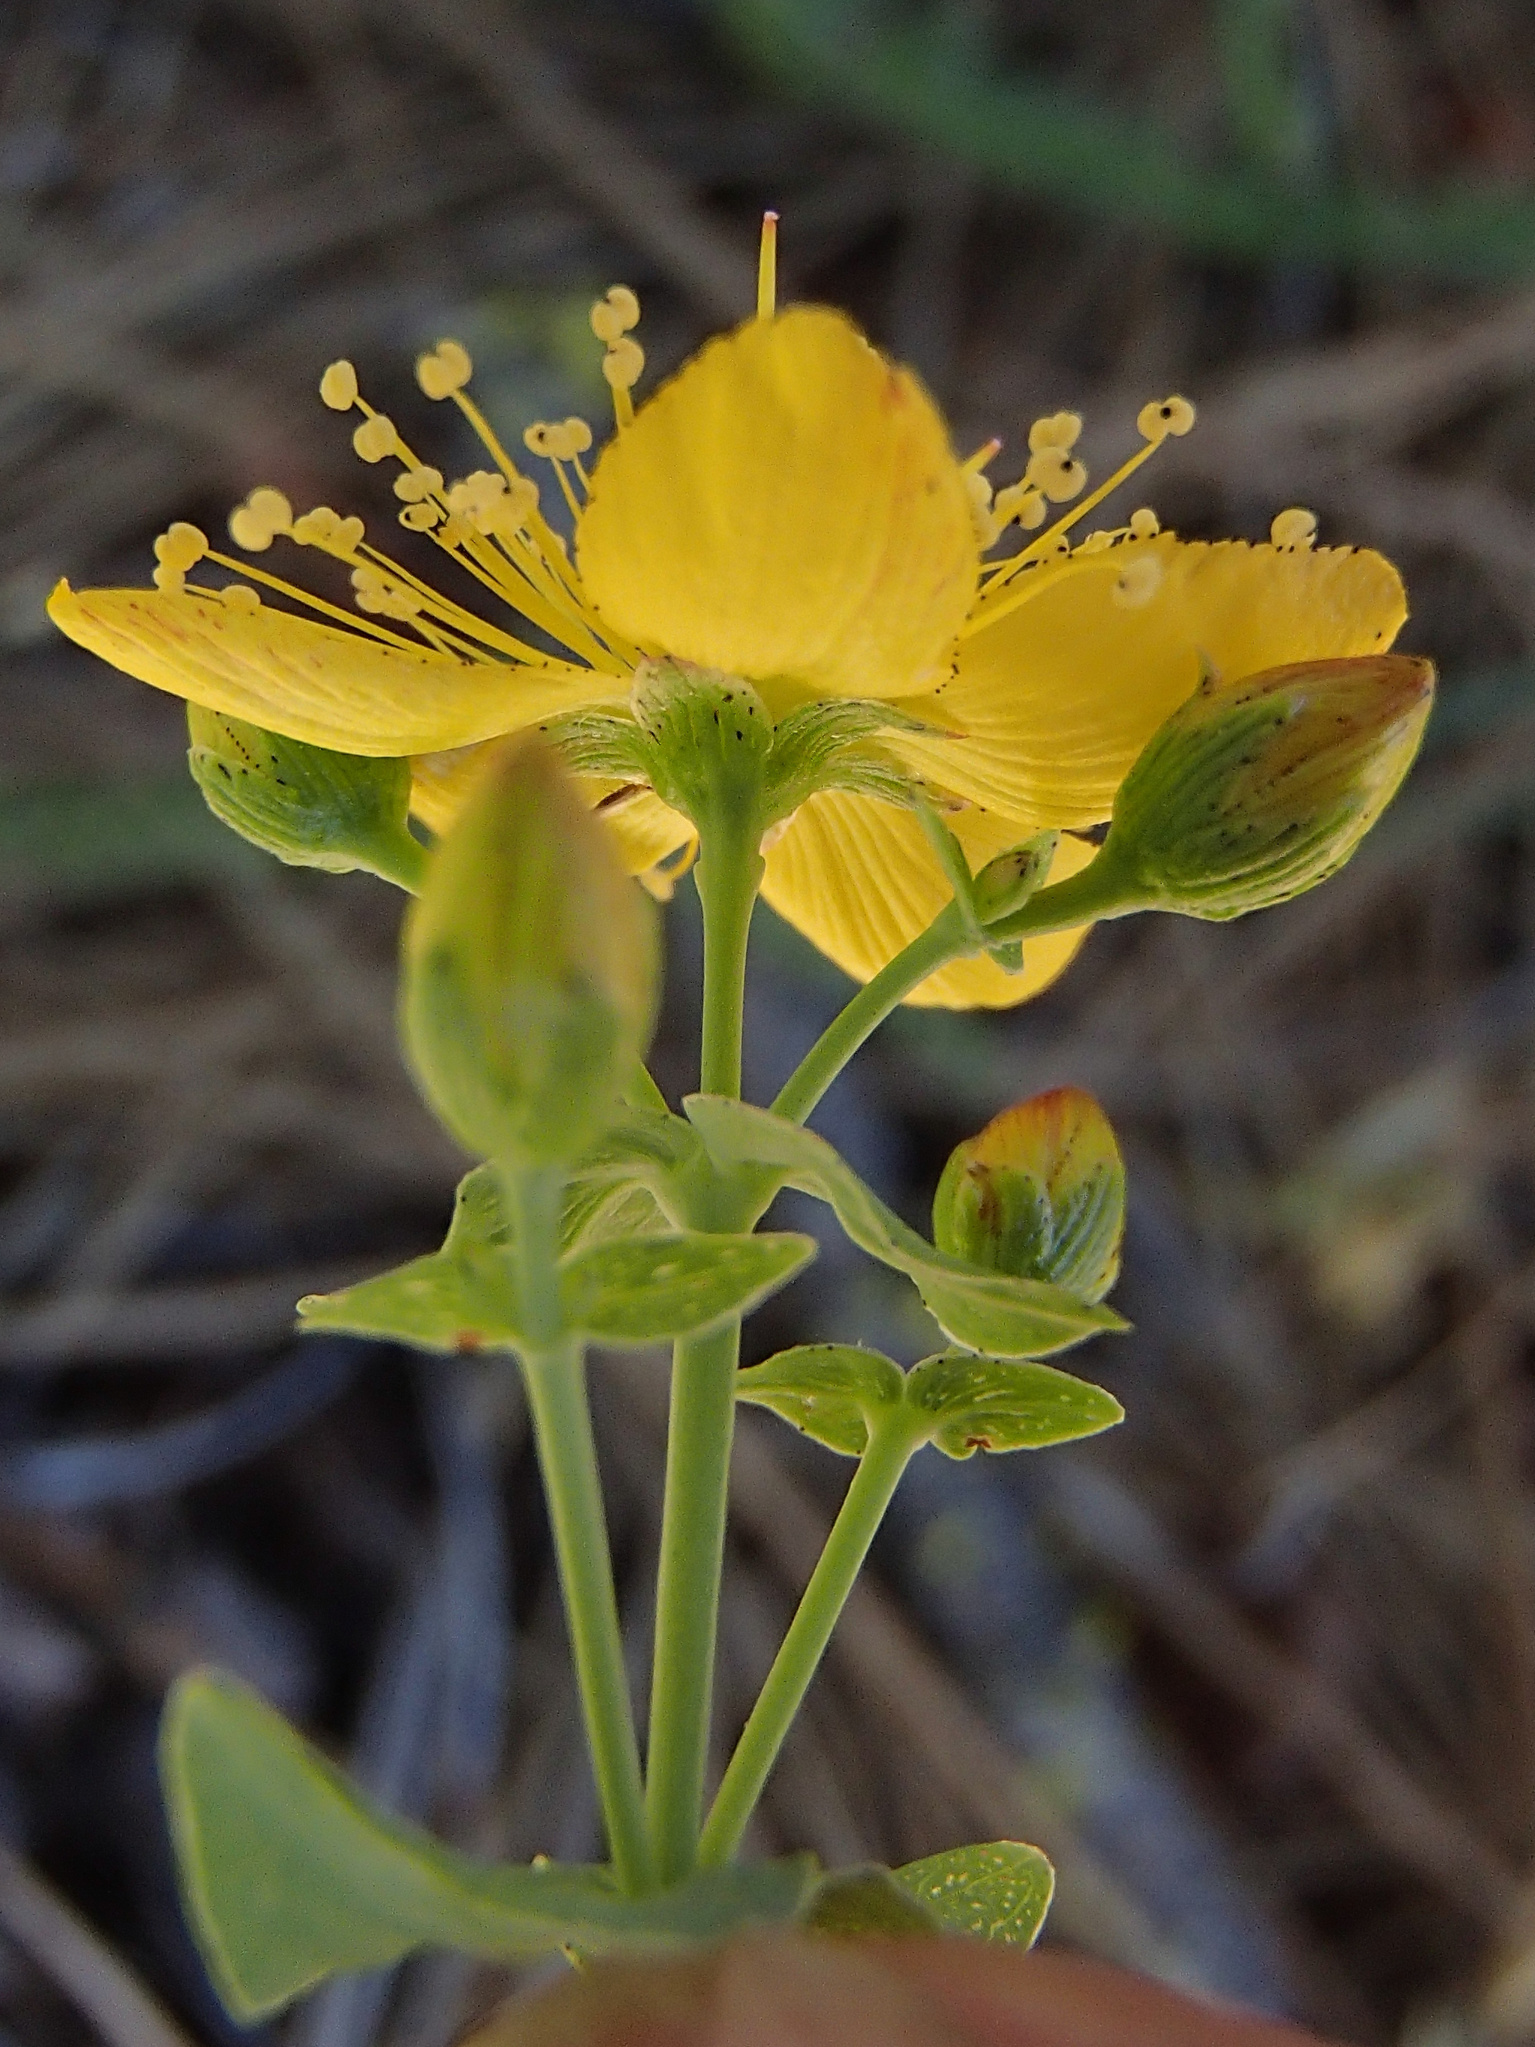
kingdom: Plantae
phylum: Tracheophyta
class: Magnoliopsida
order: Malpighiales
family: Hypericaceae
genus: Hypericum
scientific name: Hypericum scouleri
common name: Scouler's st. john's-wort
